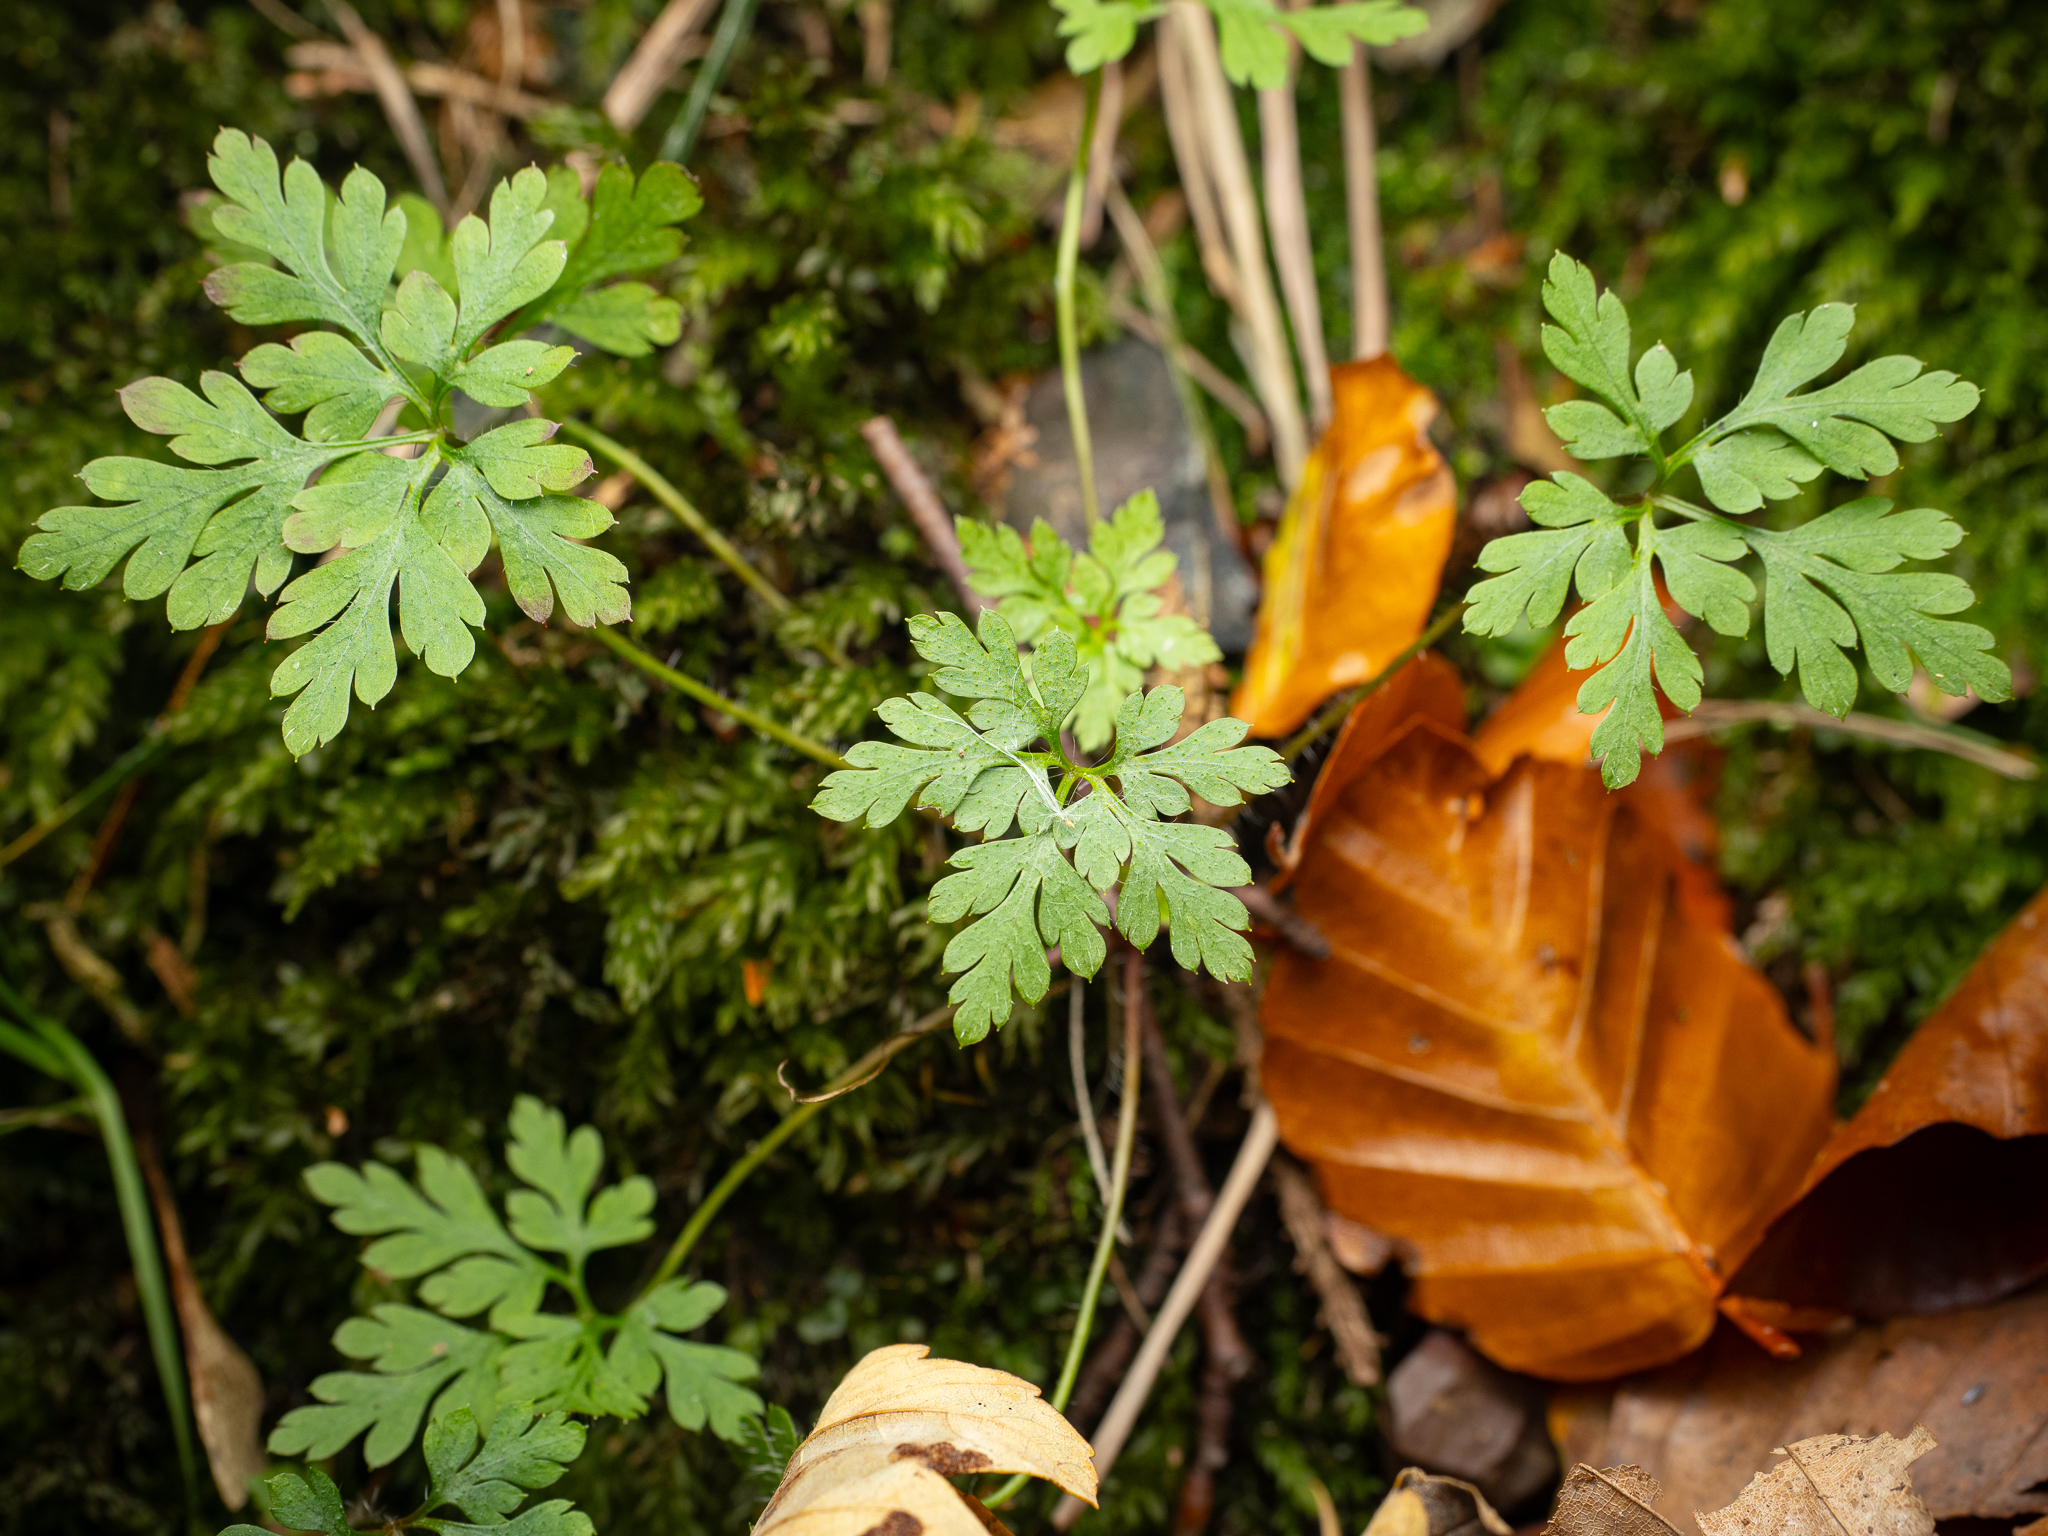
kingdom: Plantae
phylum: Tracheophyta
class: Magnoliopsida
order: Geraniales
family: Geraniaceae
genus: Geranium
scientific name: Geranium robertianum
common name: Herb-robert
